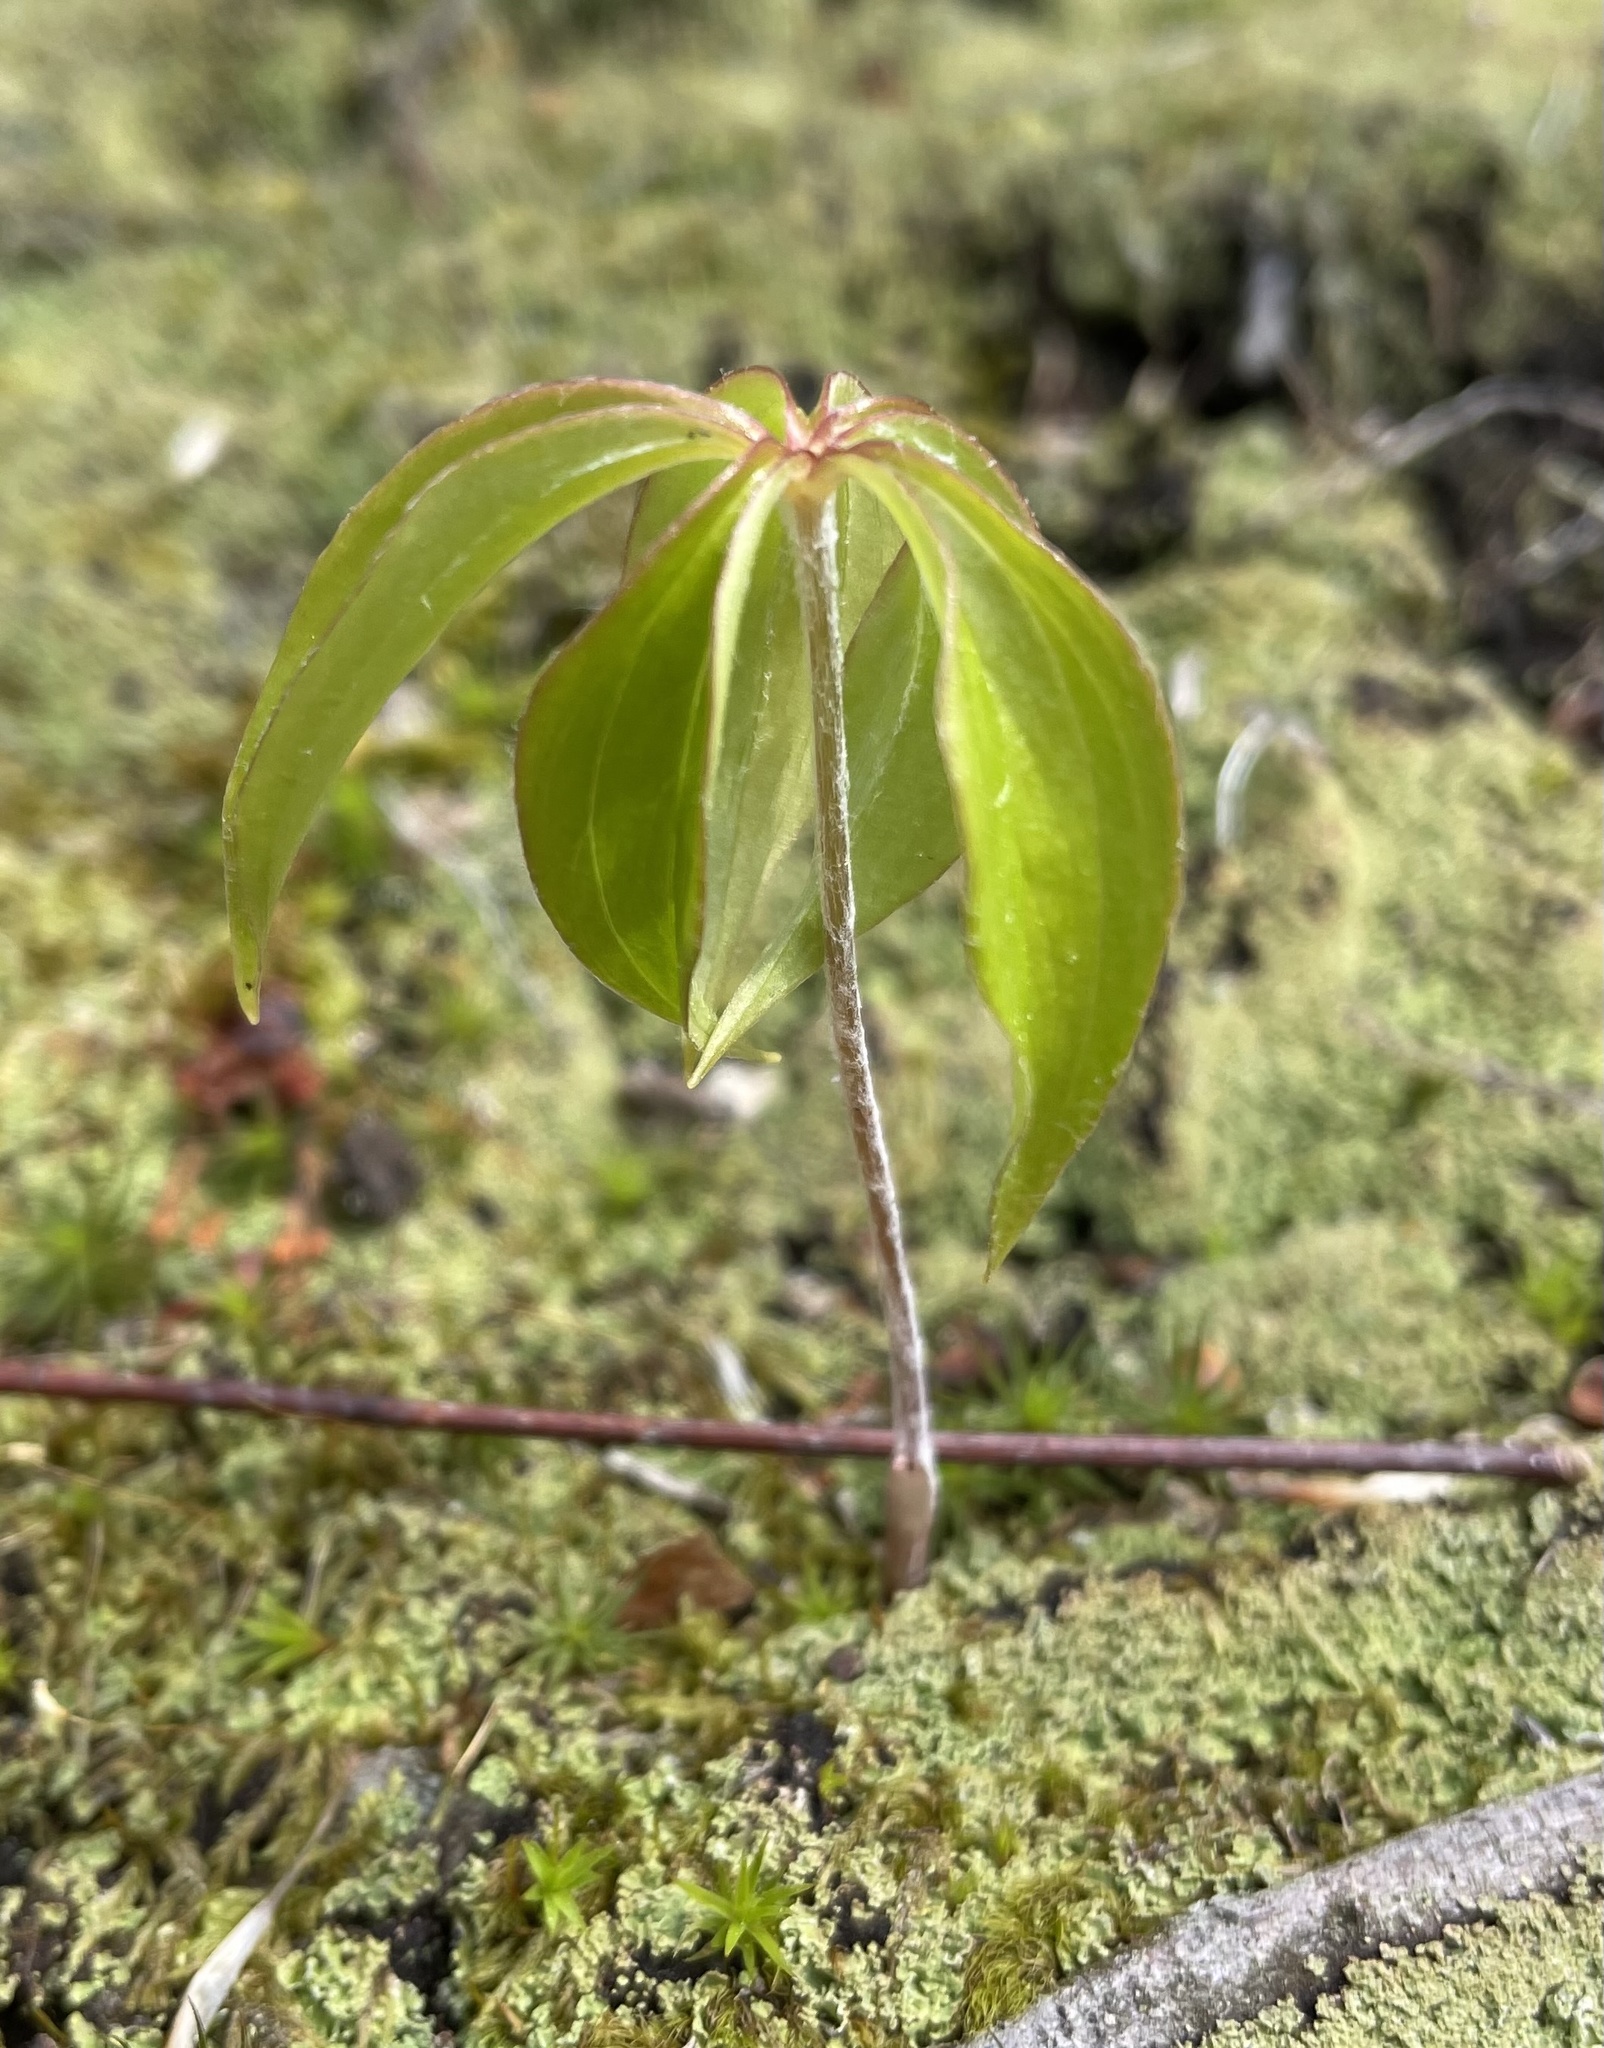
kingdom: Plantae
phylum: Tracheophyta
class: Liliopsida
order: Liliales
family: Liliaceae
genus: Medeola
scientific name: Medeola virginiana
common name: Indian cucumber-root
